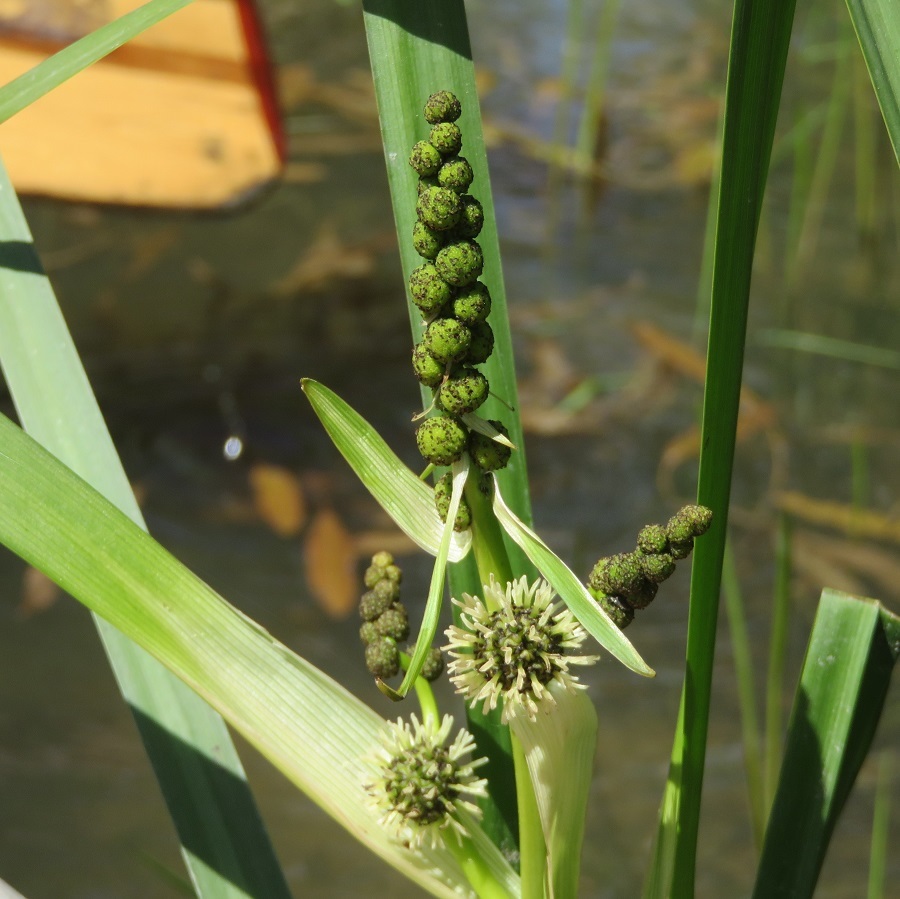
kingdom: Plantae
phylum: Tracheophyta
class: Liliopsida
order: Poales
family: Typhaceae
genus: Sparganium
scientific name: Sparganium eurycarpum
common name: Broad-fruited burreed
